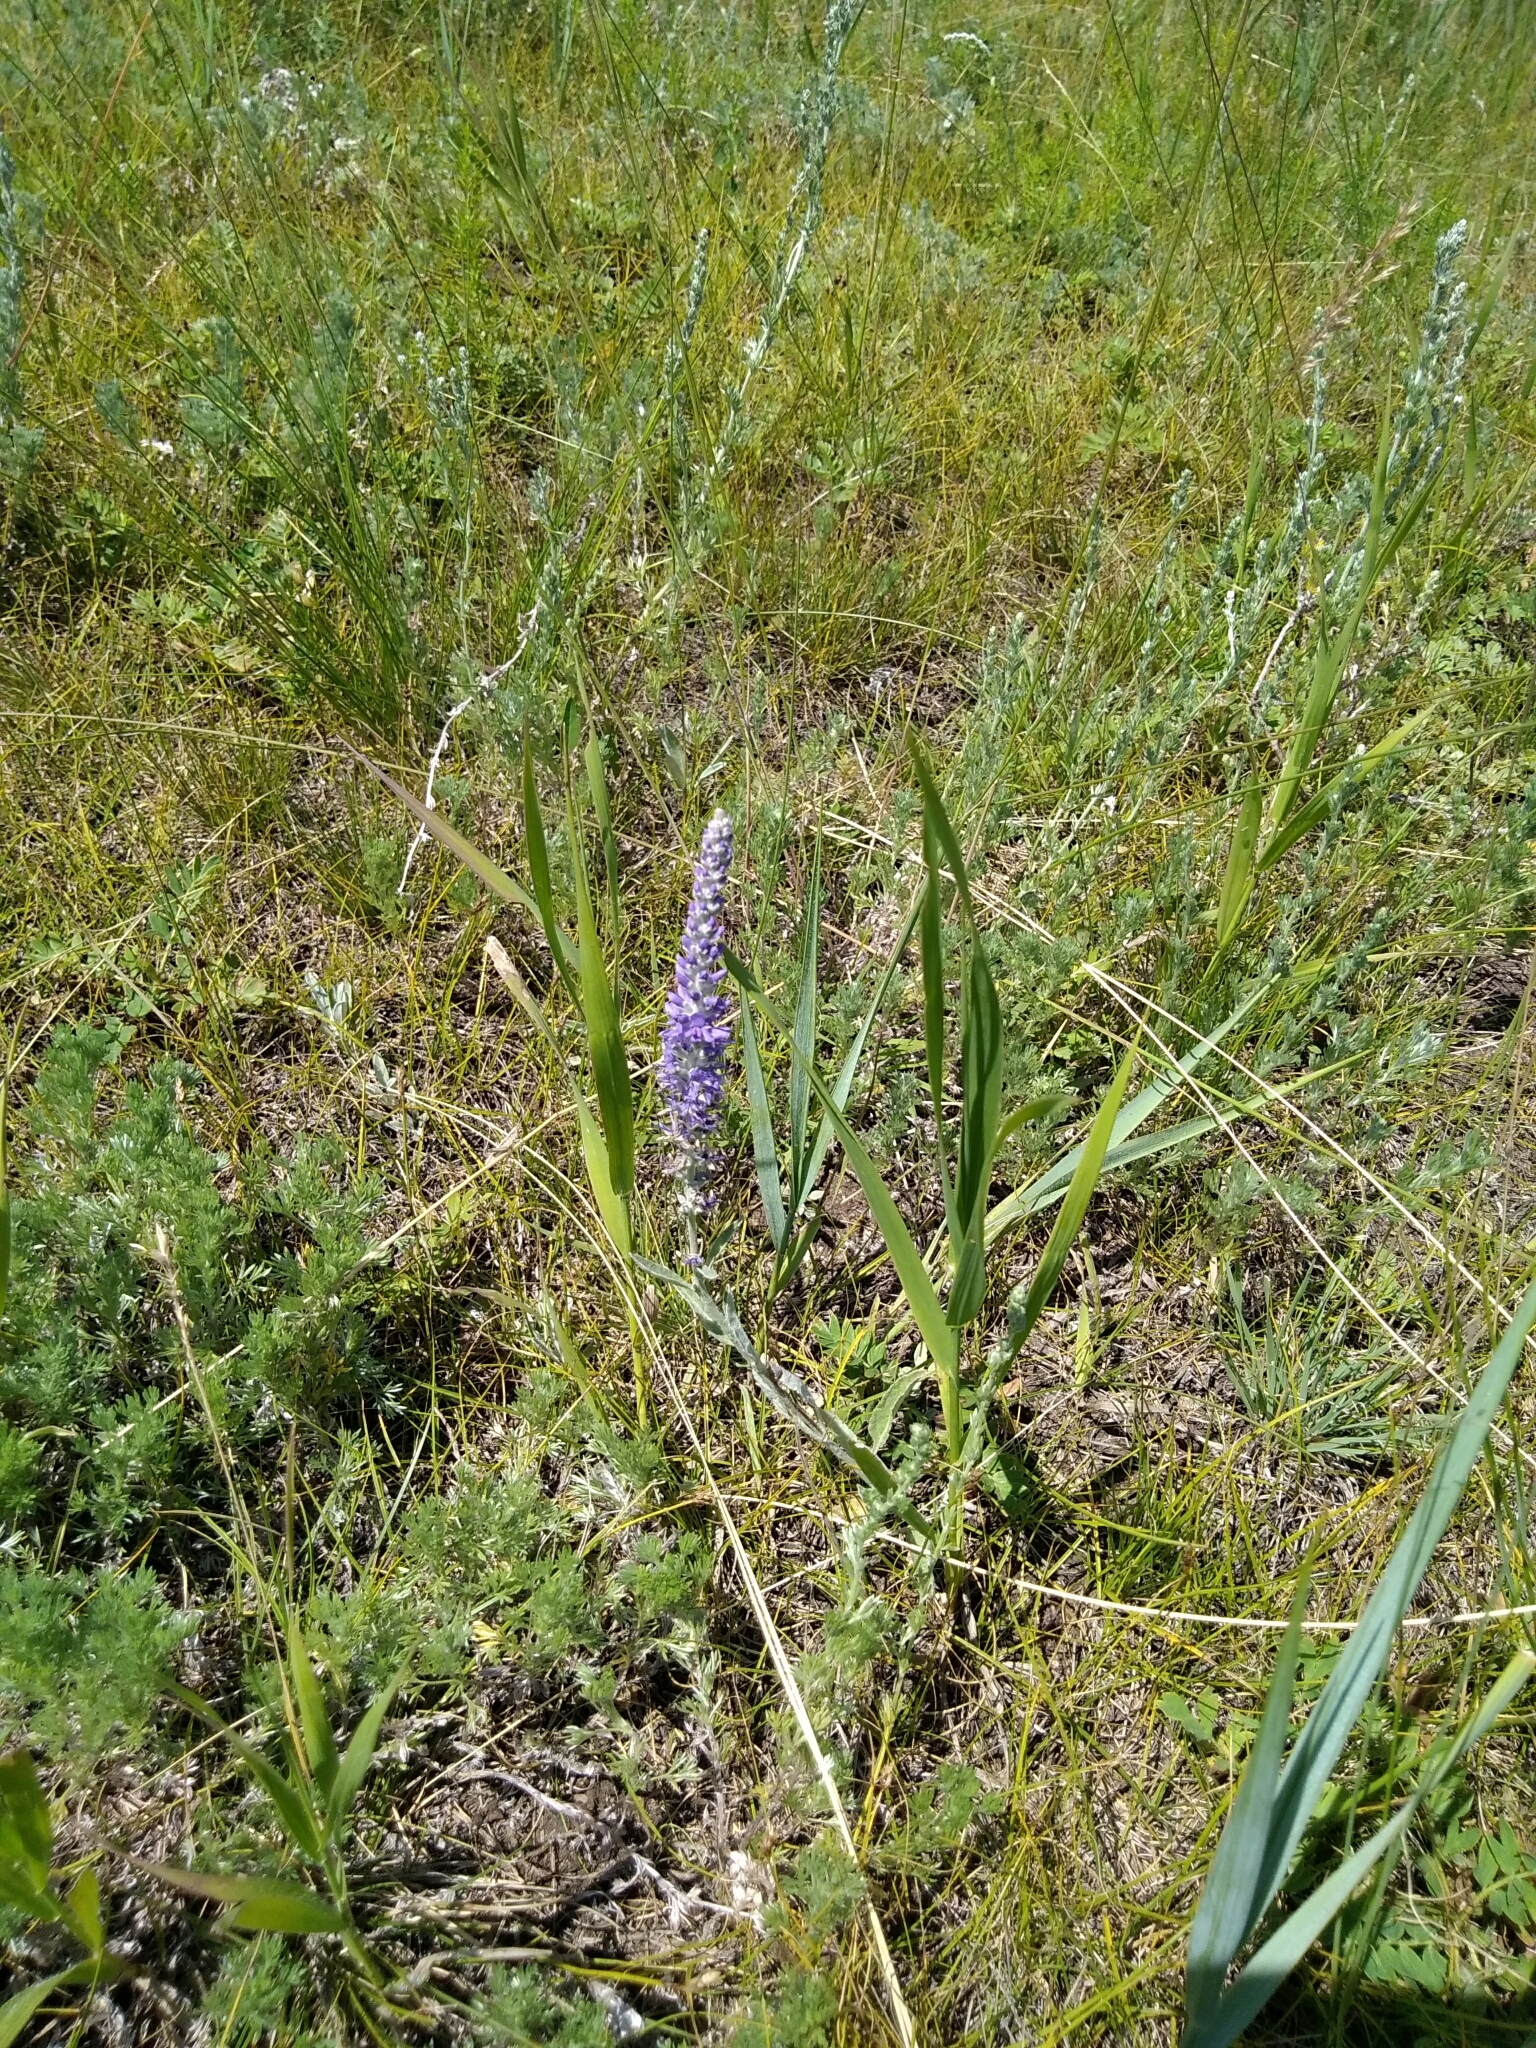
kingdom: Plantae
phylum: Tracheophyta
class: Magnoliopsida
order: Lamiales
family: Plantaginaceae
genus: Veronica
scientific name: Veronica incana
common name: Silver speedwell
